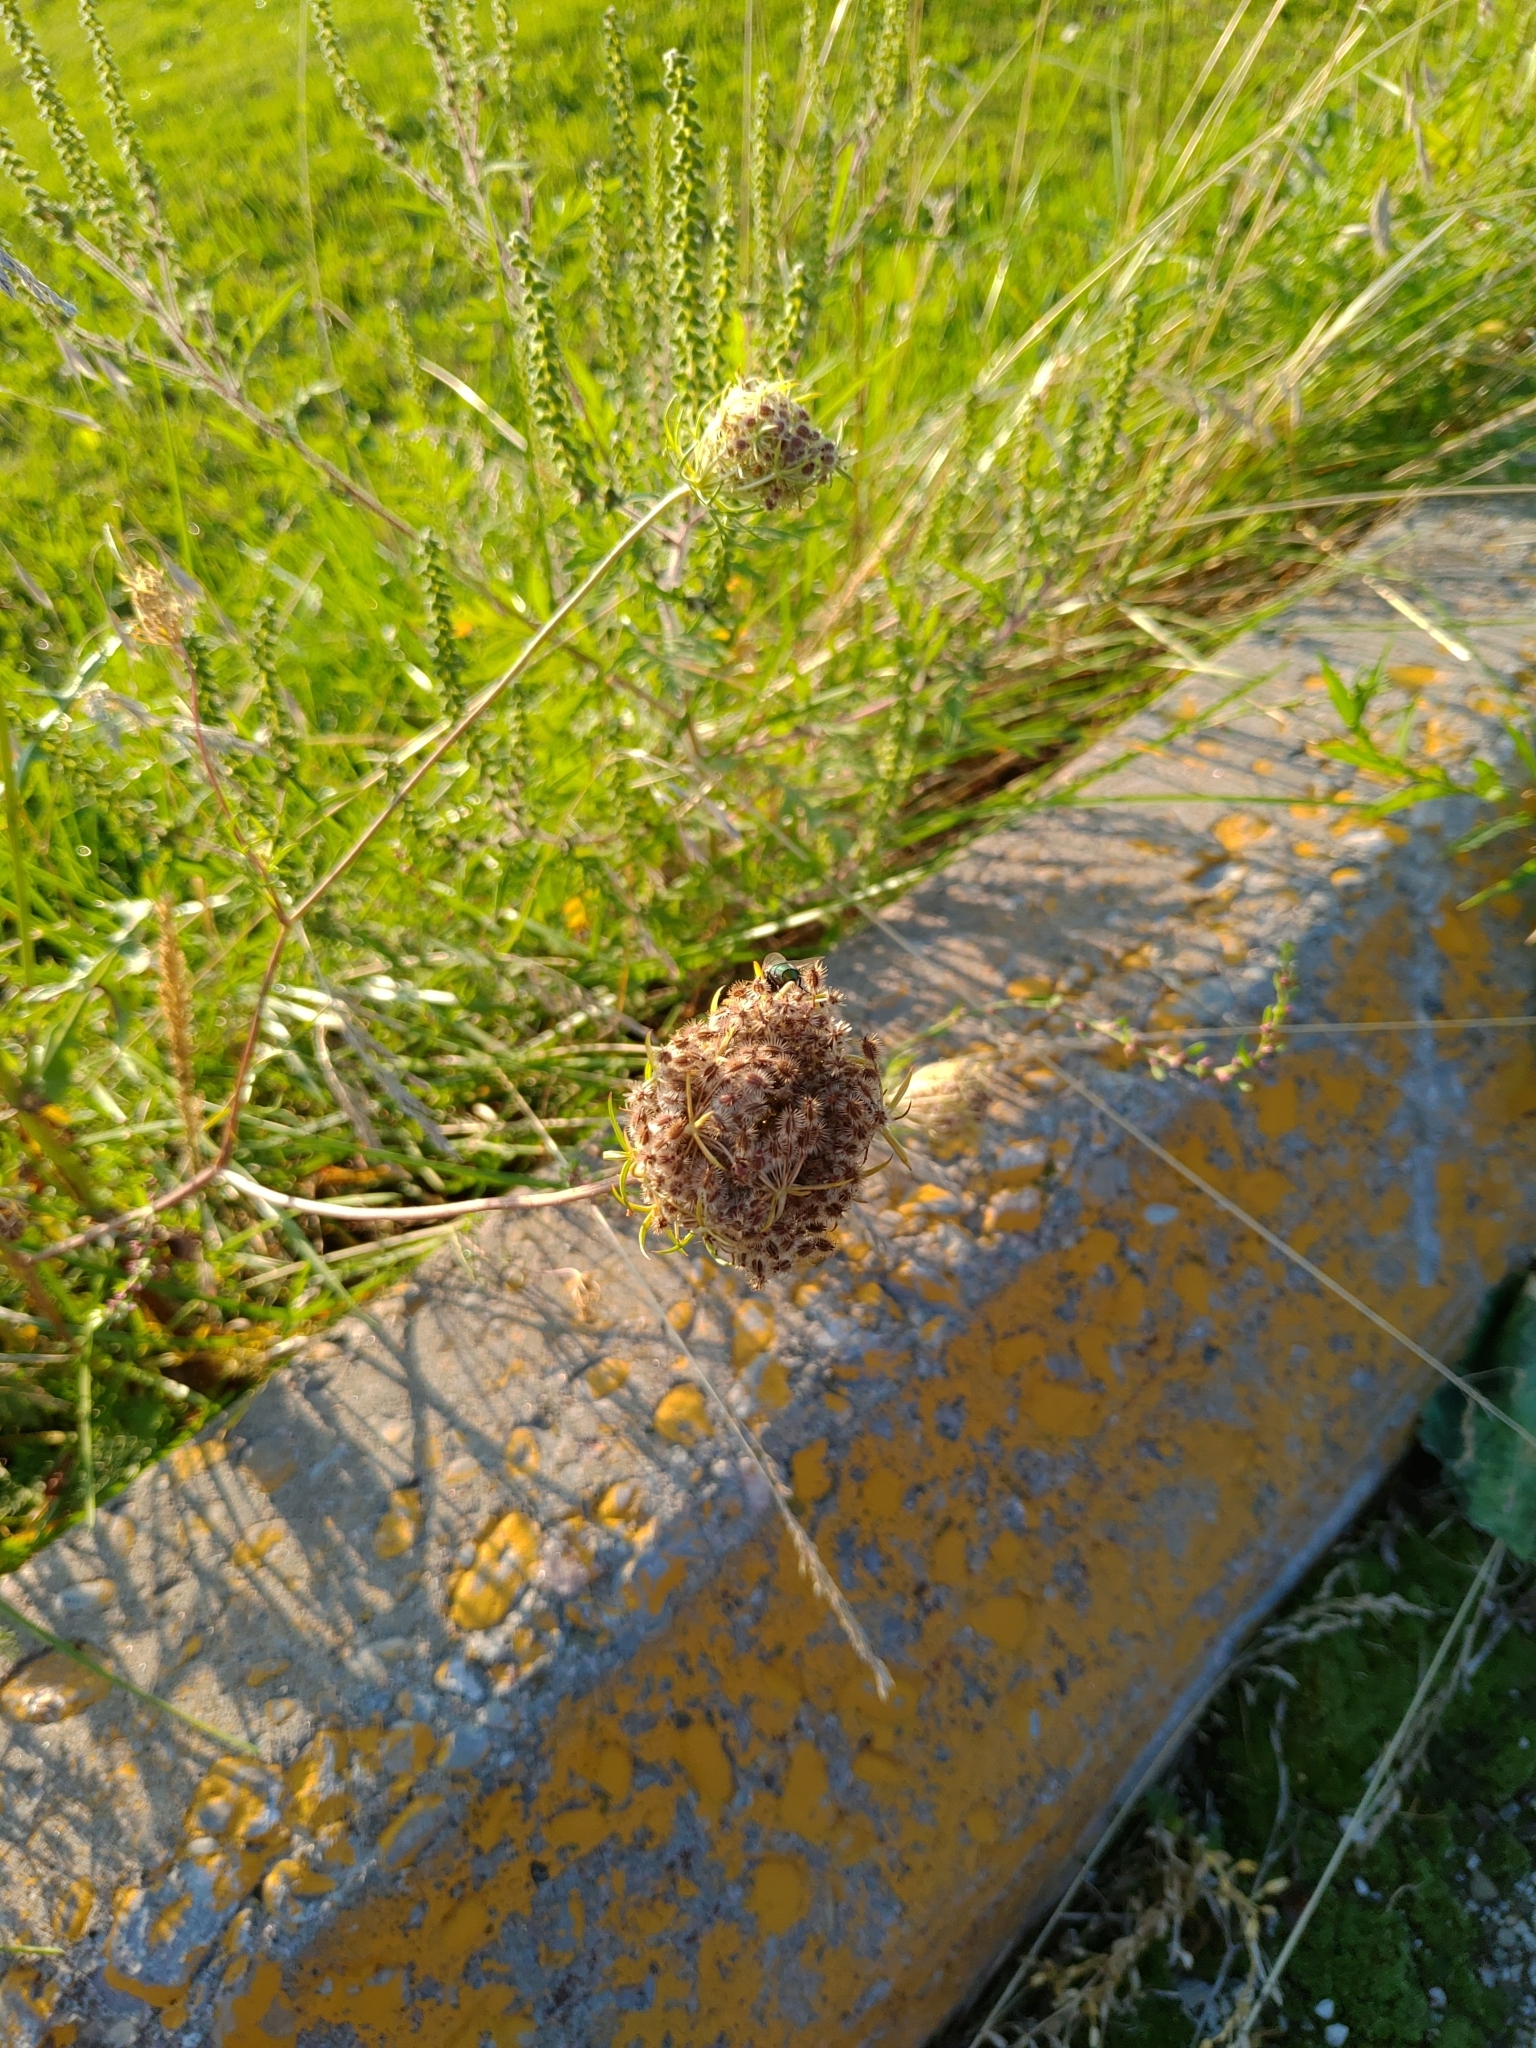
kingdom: Plantae
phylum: Tracheophyta
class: Magnoliopsida
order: Apiales
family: Apiaceae
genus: Daucus
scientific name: Daucus carota
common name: Wild carrot
